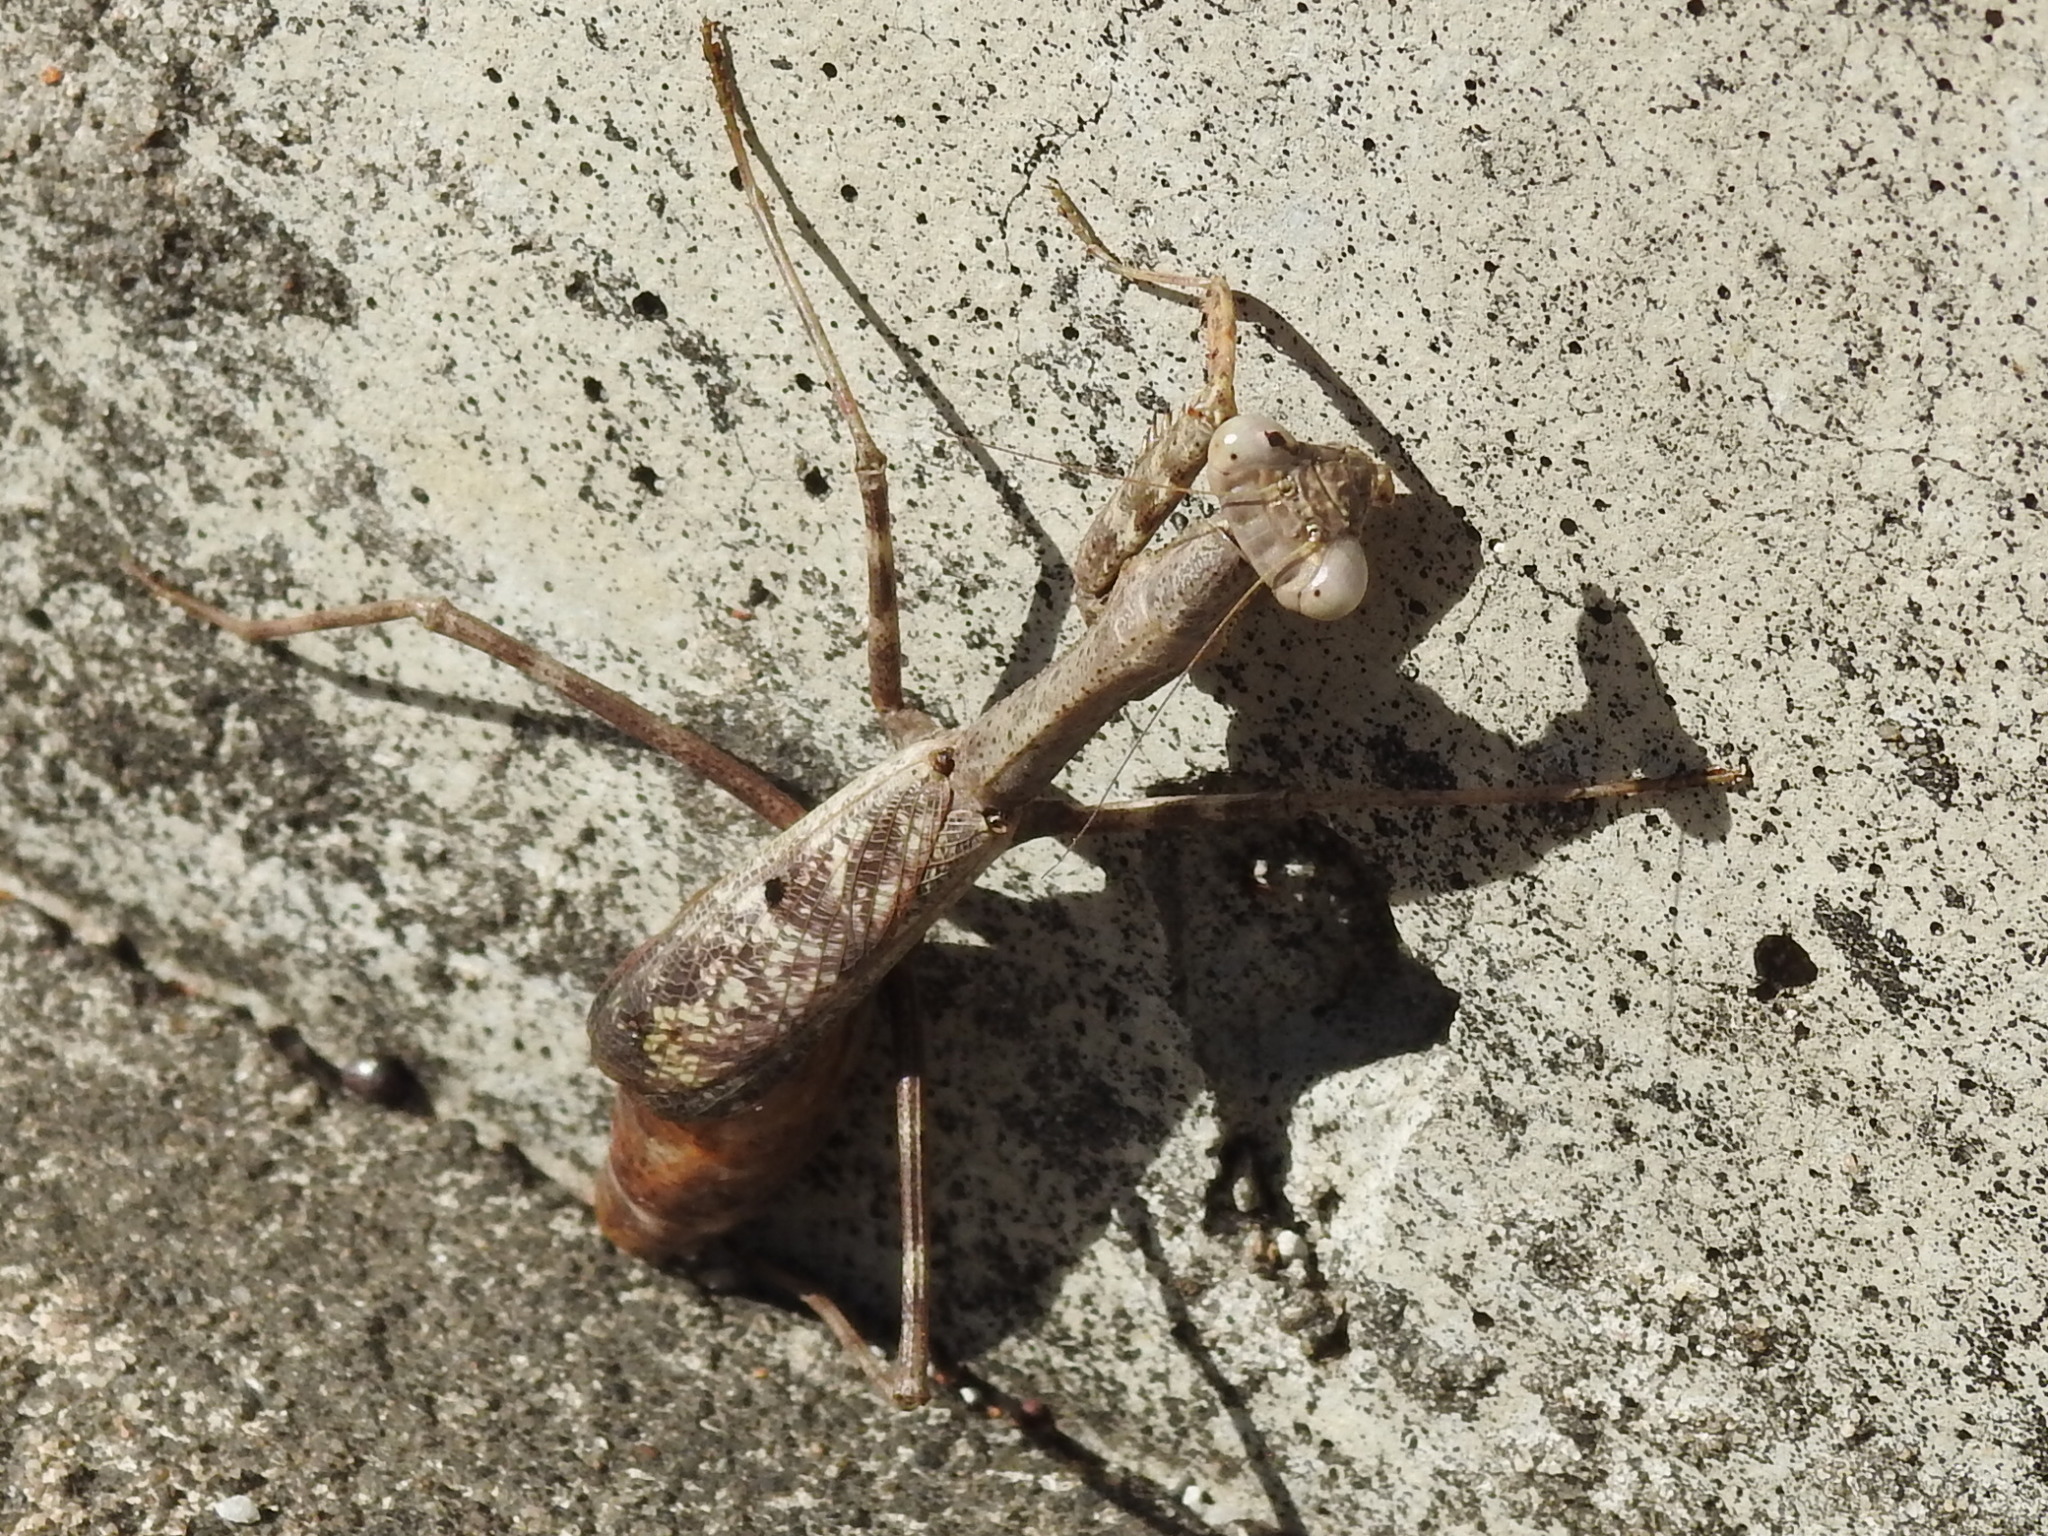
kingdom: Animalia
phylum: Arthropoda
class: Insecta
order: Mantodea
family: Mantidae
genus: Stagmomantis
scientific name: Stagmomantis carolina
